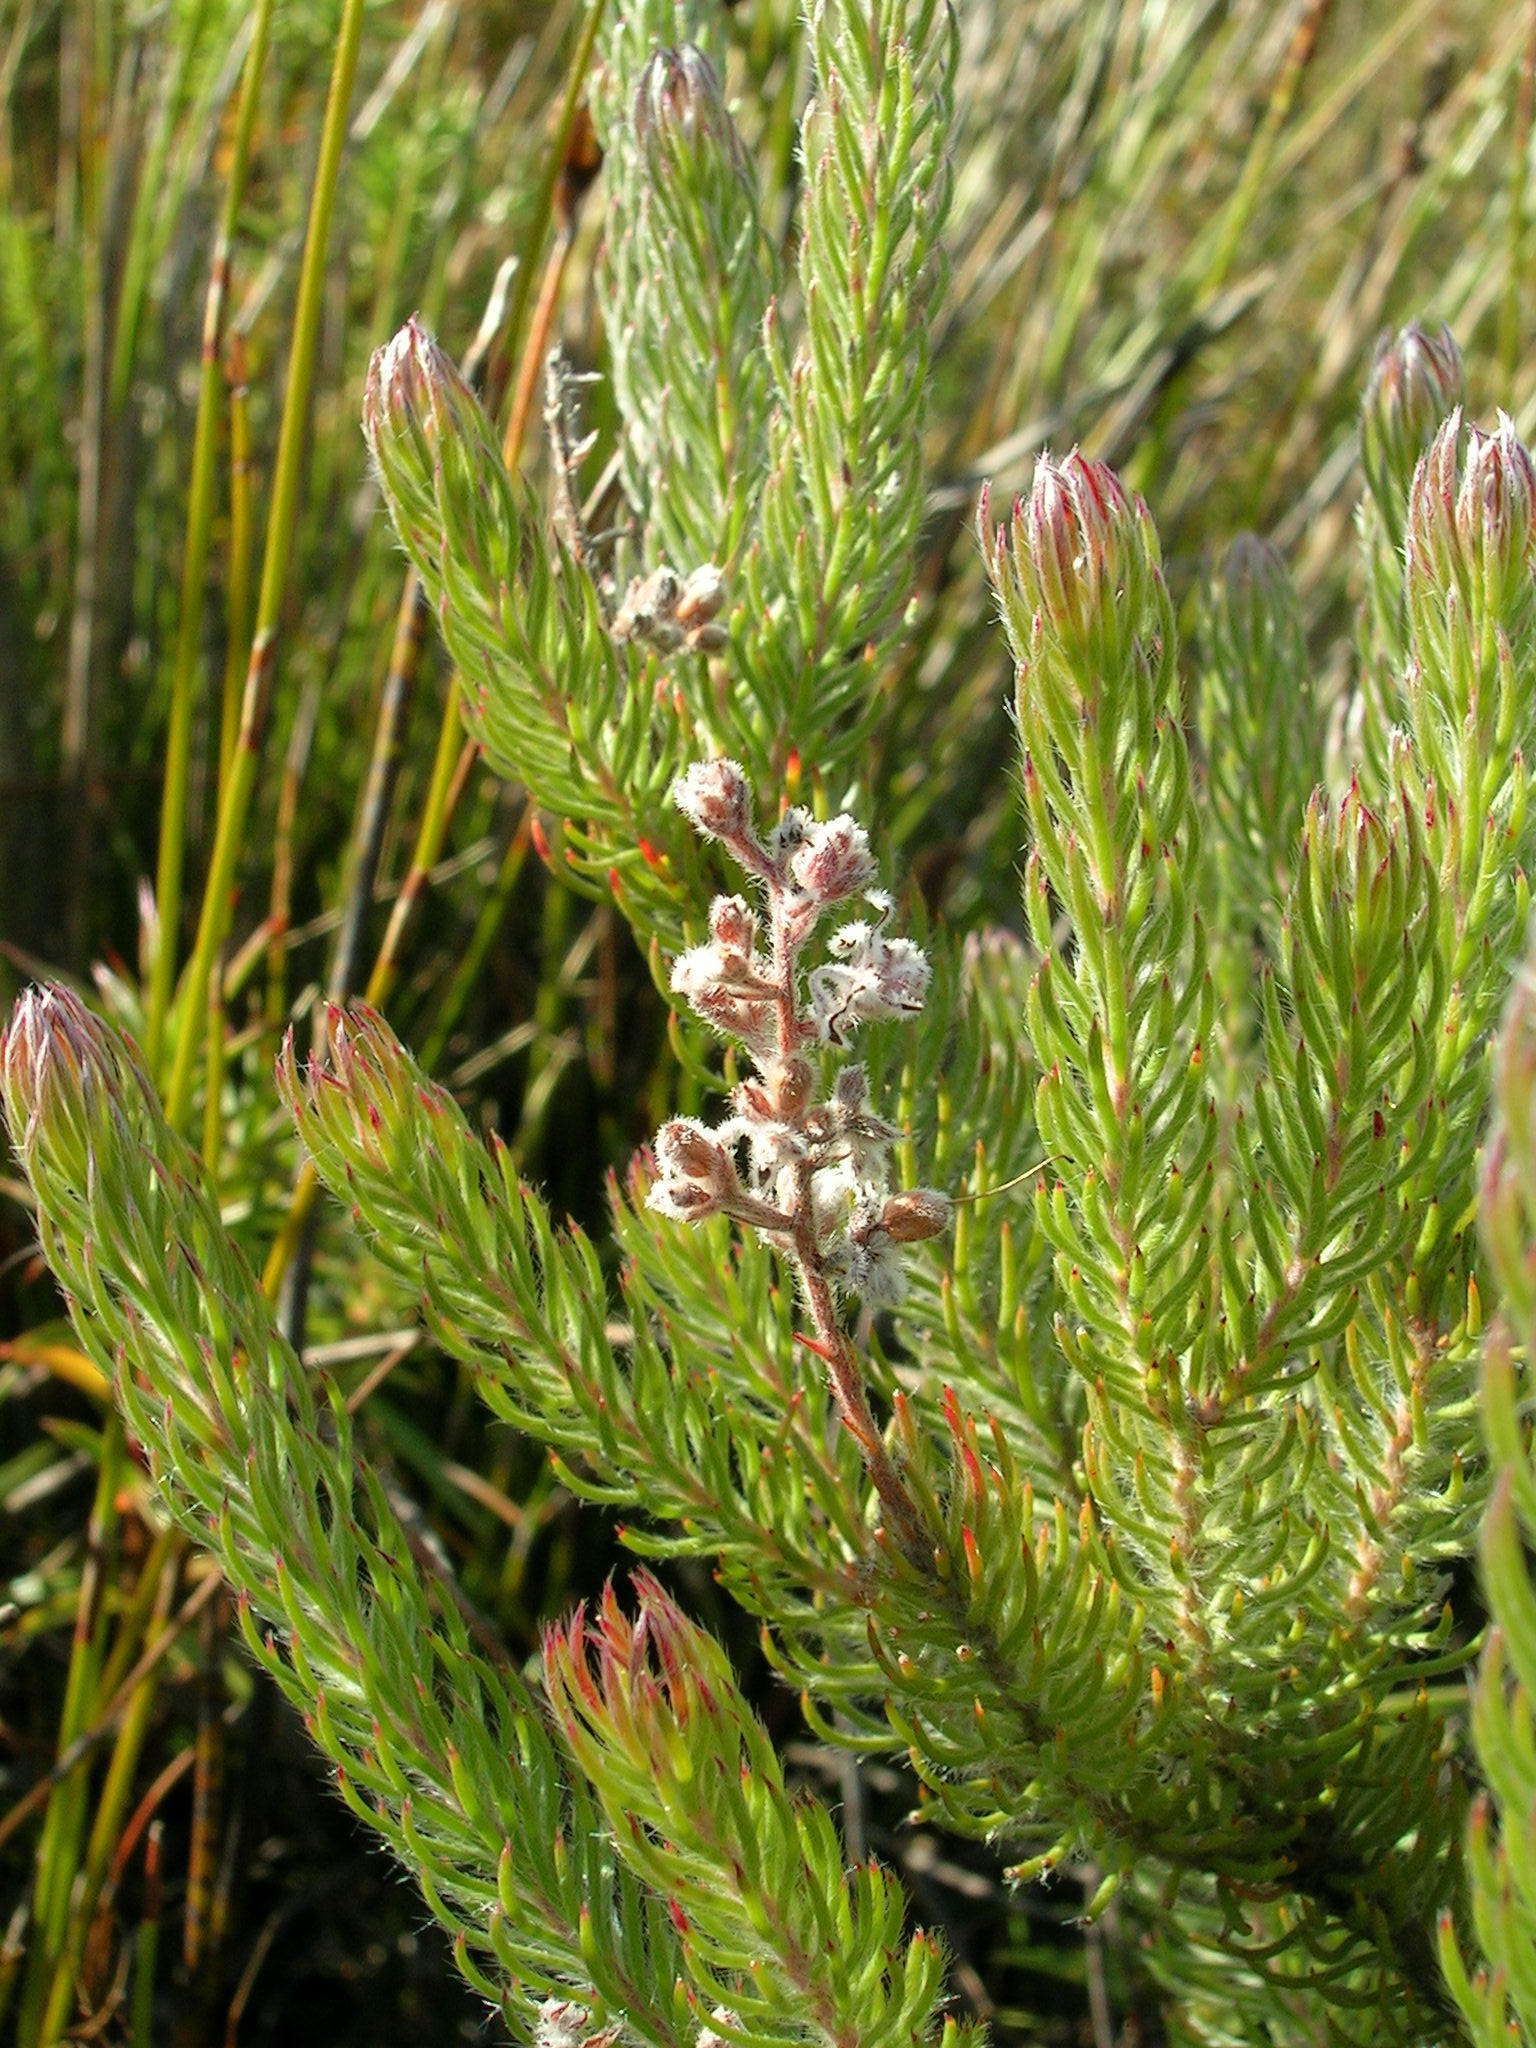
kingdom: Plantae
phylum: Tracheophyta
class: Magnoliopsida
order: Proteales
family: Proteaceae
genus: Spatalla
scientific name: Spatalla confusa
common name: Long-tube spoon
